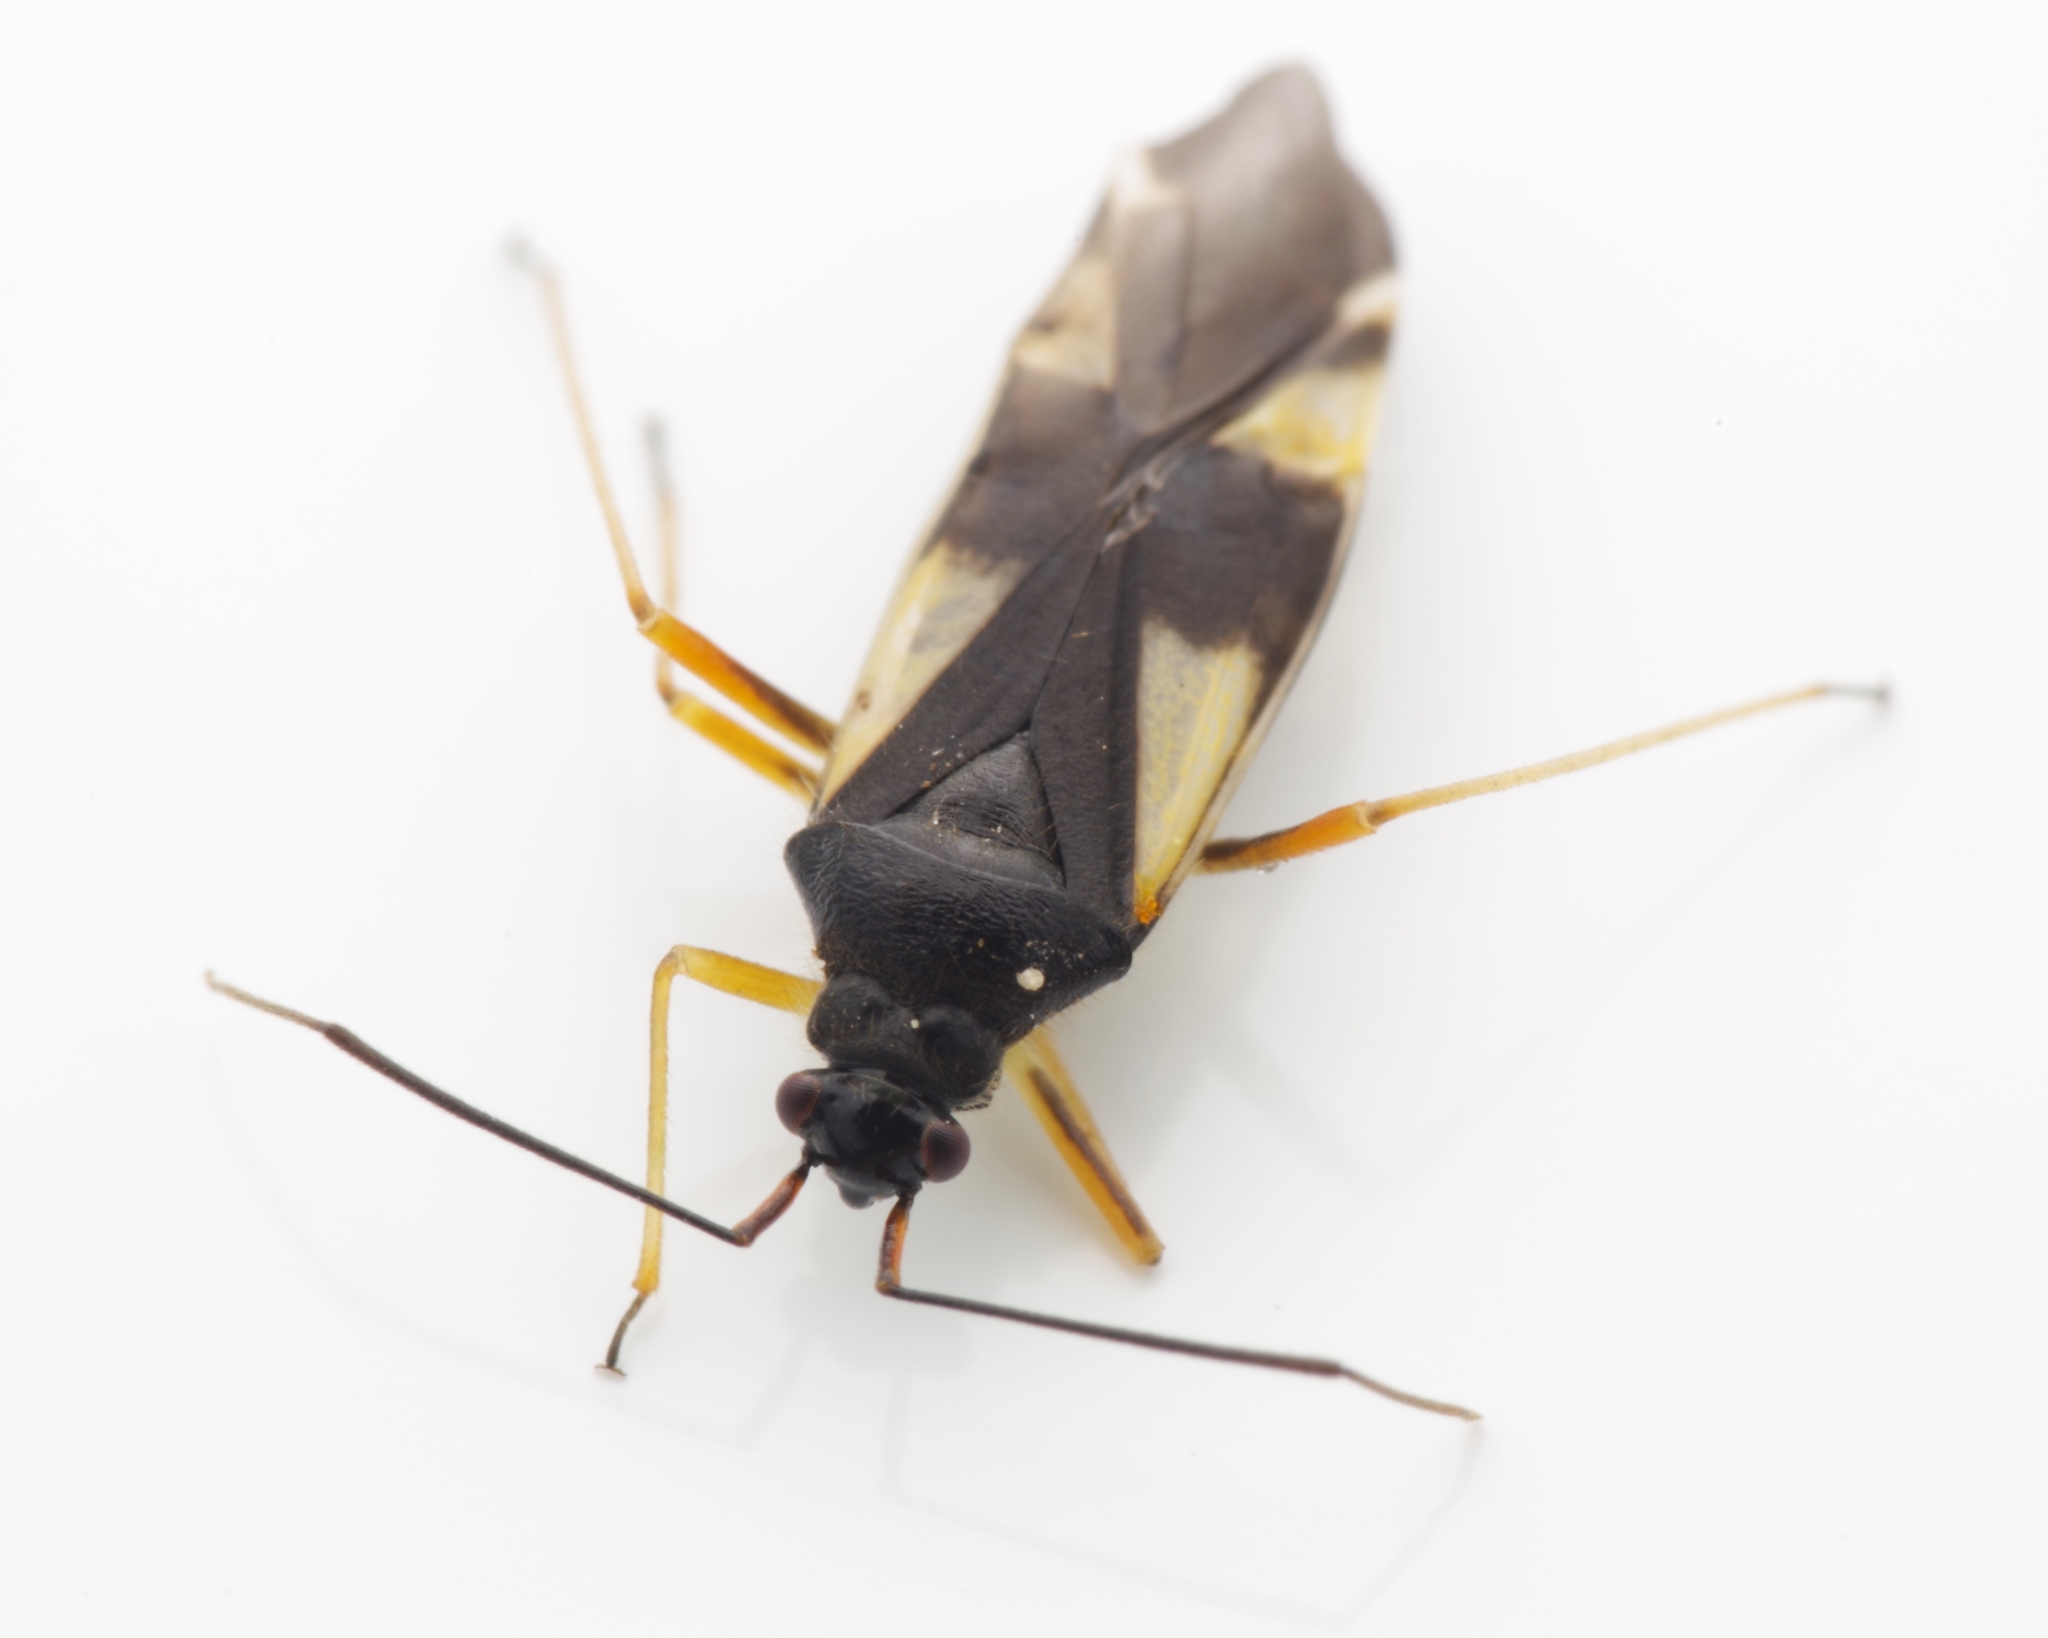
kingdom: Animalia
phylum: Arthropoda
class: Insecta
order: Hemiptera
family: Miridae
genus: Dryophilocoris
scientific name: Dryophilocoris flavoquadrimaculatus
